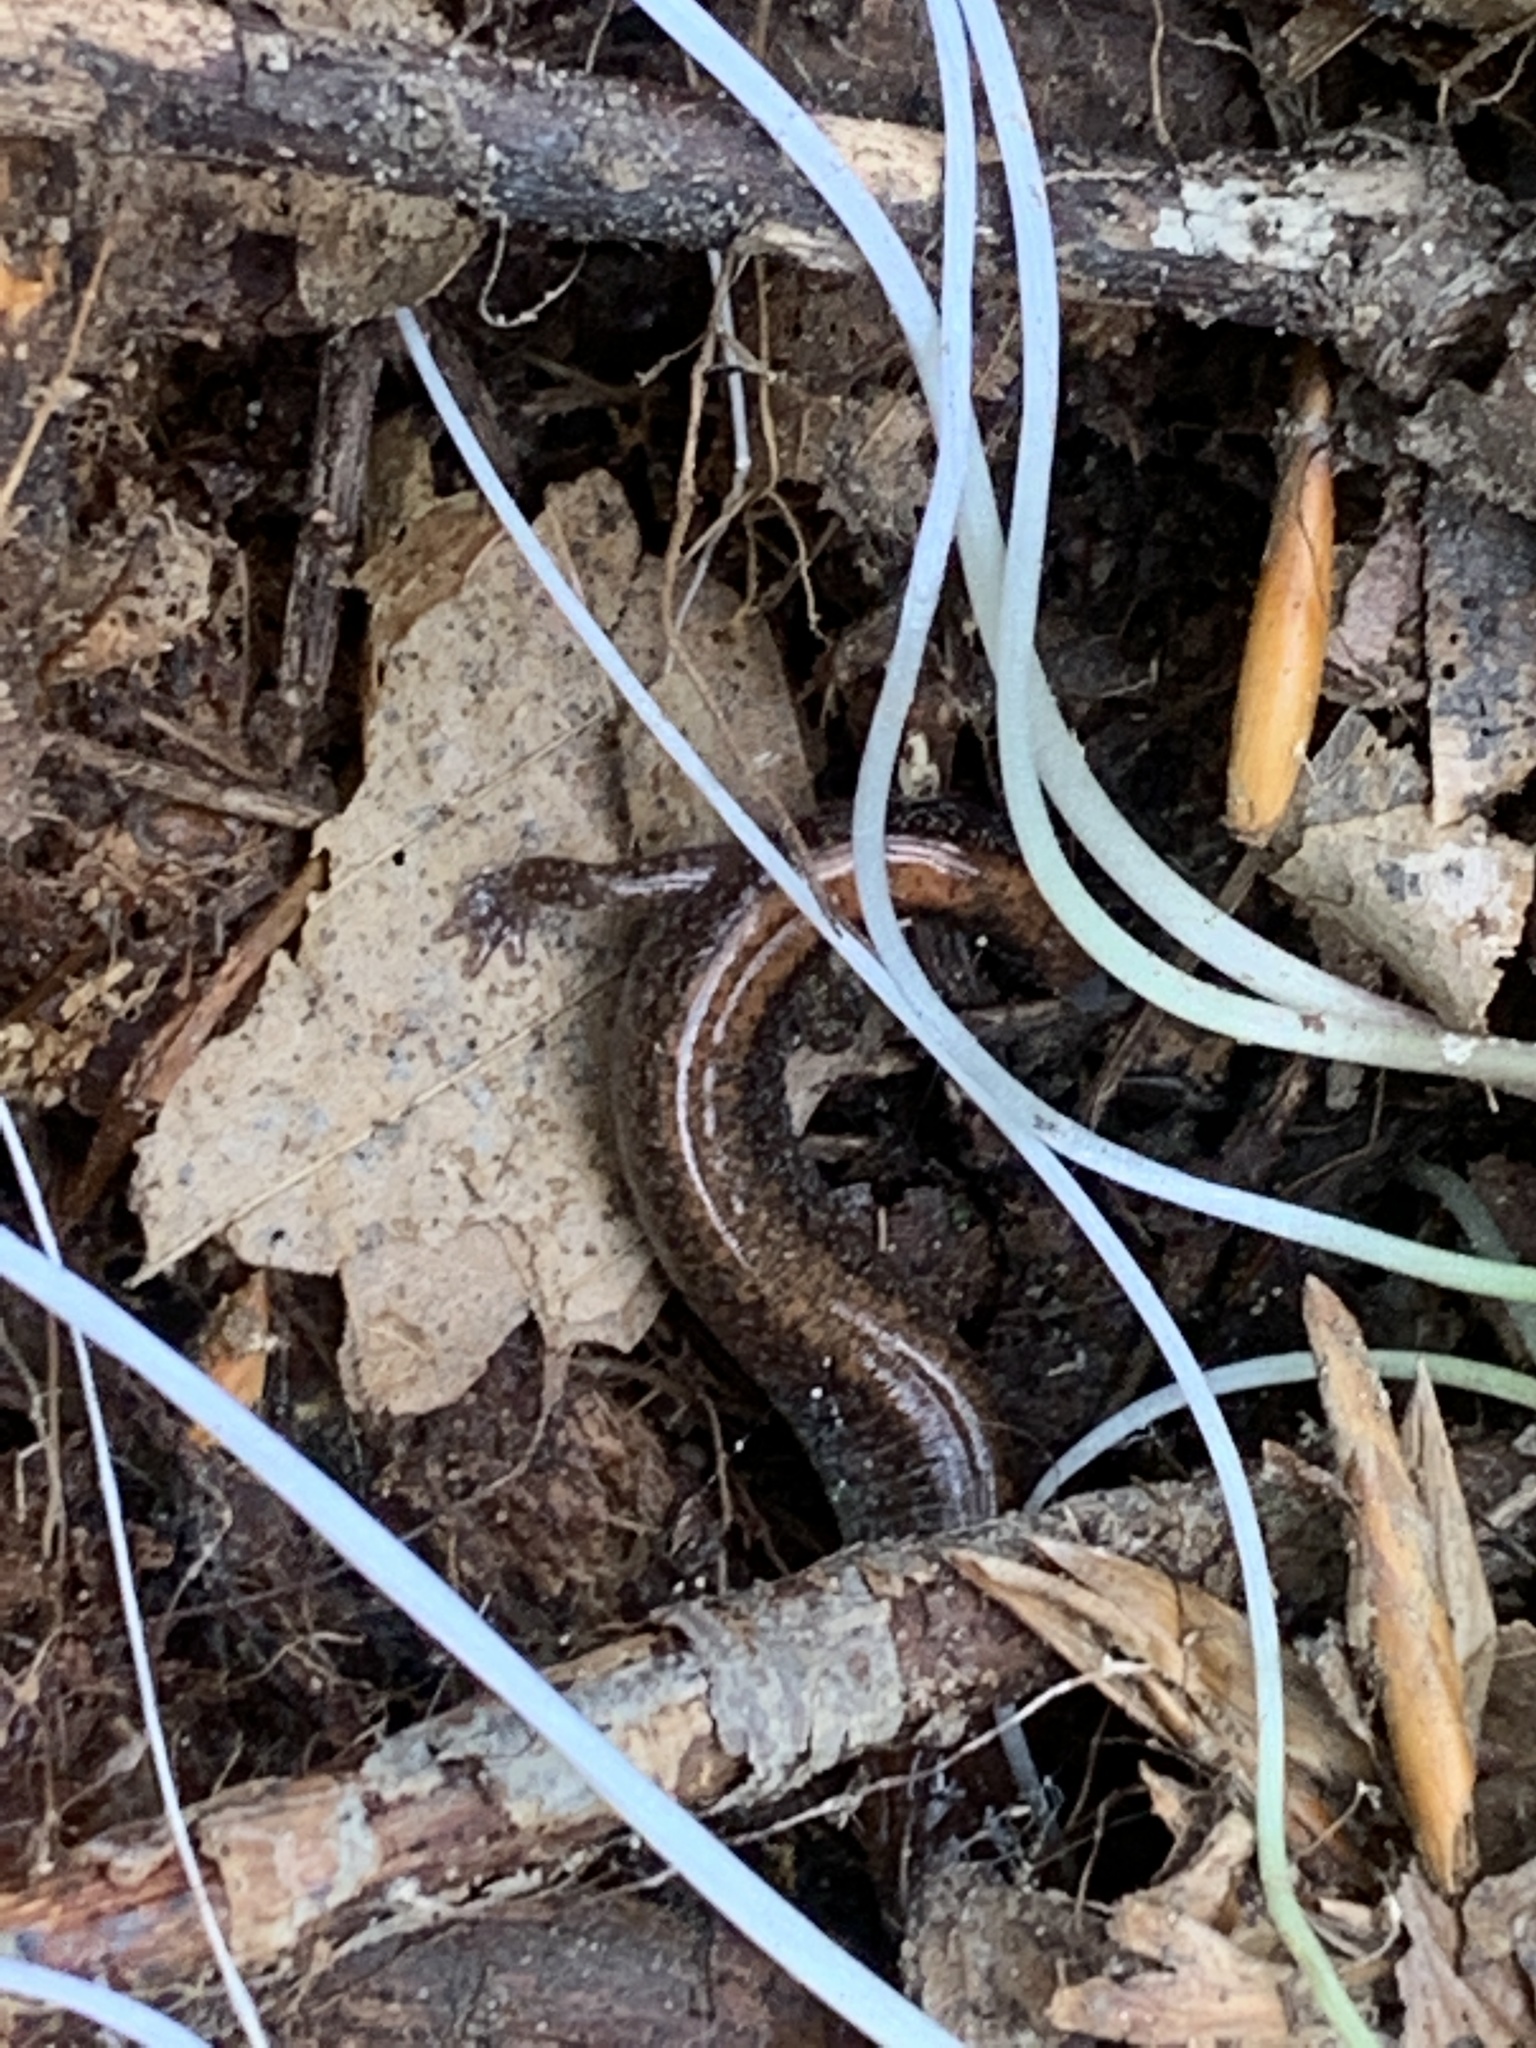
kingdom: Animalia
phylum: Chordata
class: Amphibia
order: Caudata
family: Plethodontidae
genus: Plethodon
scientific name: Plethodon cinereus
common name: Redback salamander
